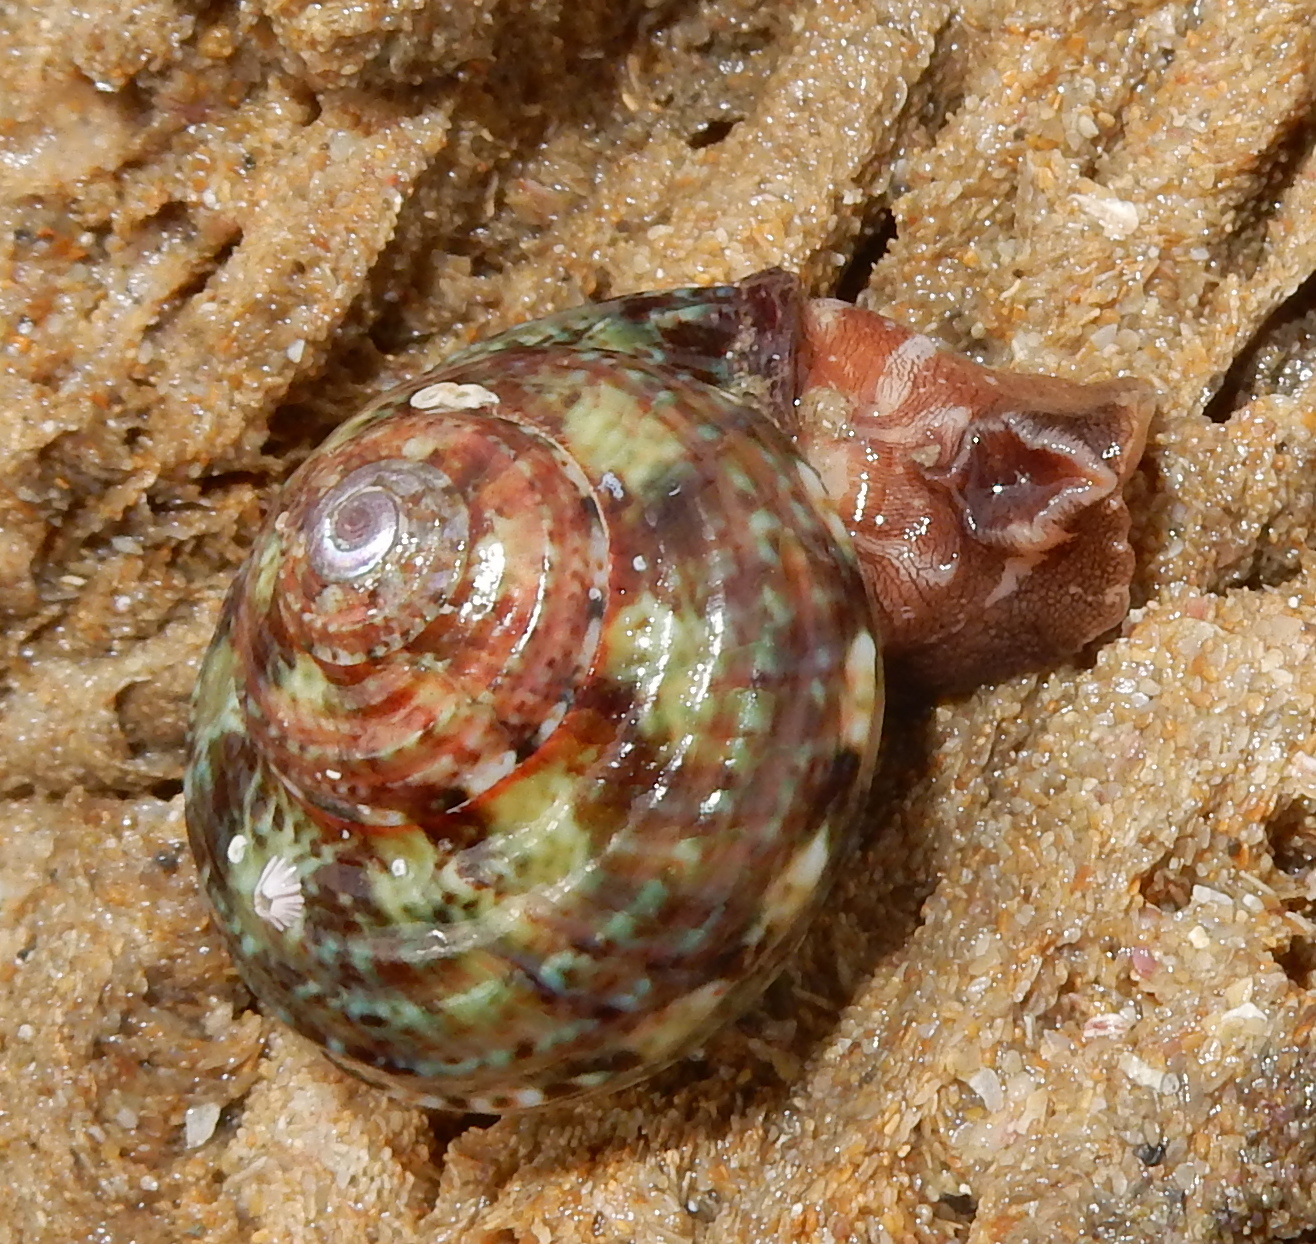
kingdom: Animalia
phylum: Mollusca
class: Gastropoda
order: Trochida
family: Turbinidae
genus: Turbo
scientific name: Turbo cidaris
